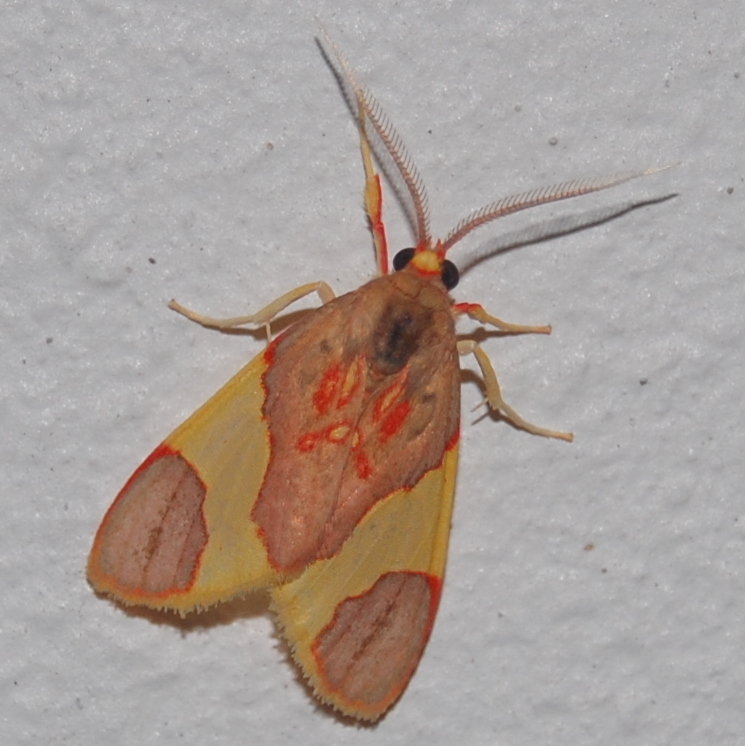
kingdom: Animalia
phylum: Arthropoda
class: Insecta
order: Lepidoptera
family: Erebidae
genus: Trichromia
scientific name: Trichromia
